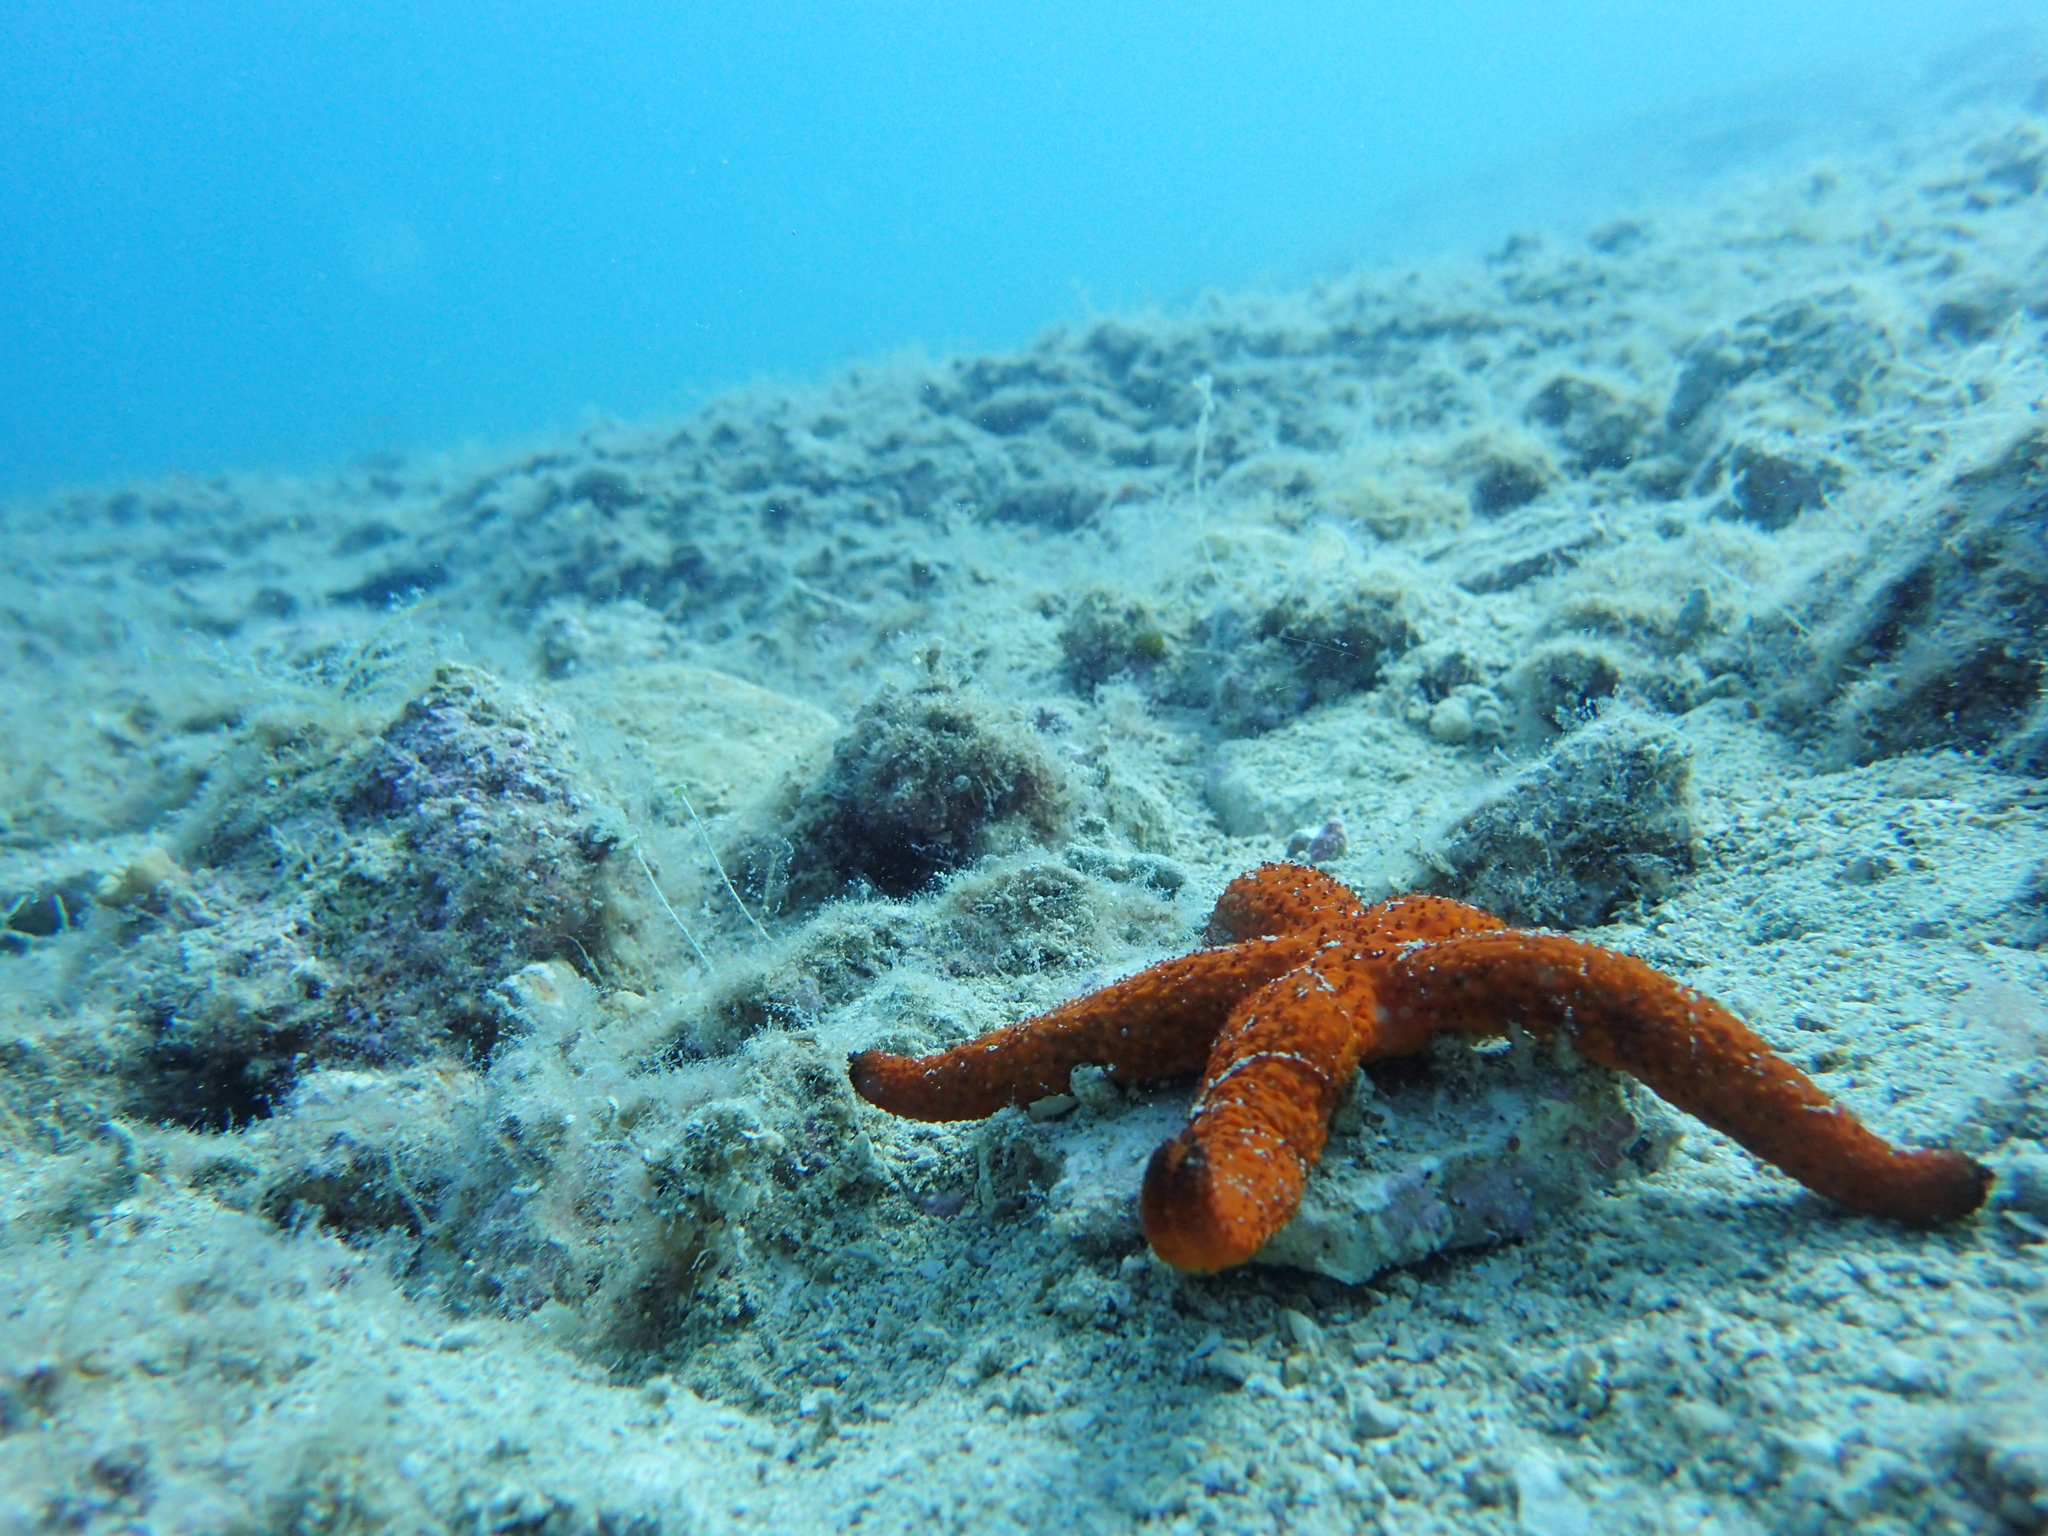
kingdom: Animalia
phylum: Echinodermata
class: Asteroidea
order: Spinulosida
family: Echinasteridae
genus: Echinaster
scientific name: Echinaster sepositus
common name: Red starfish
